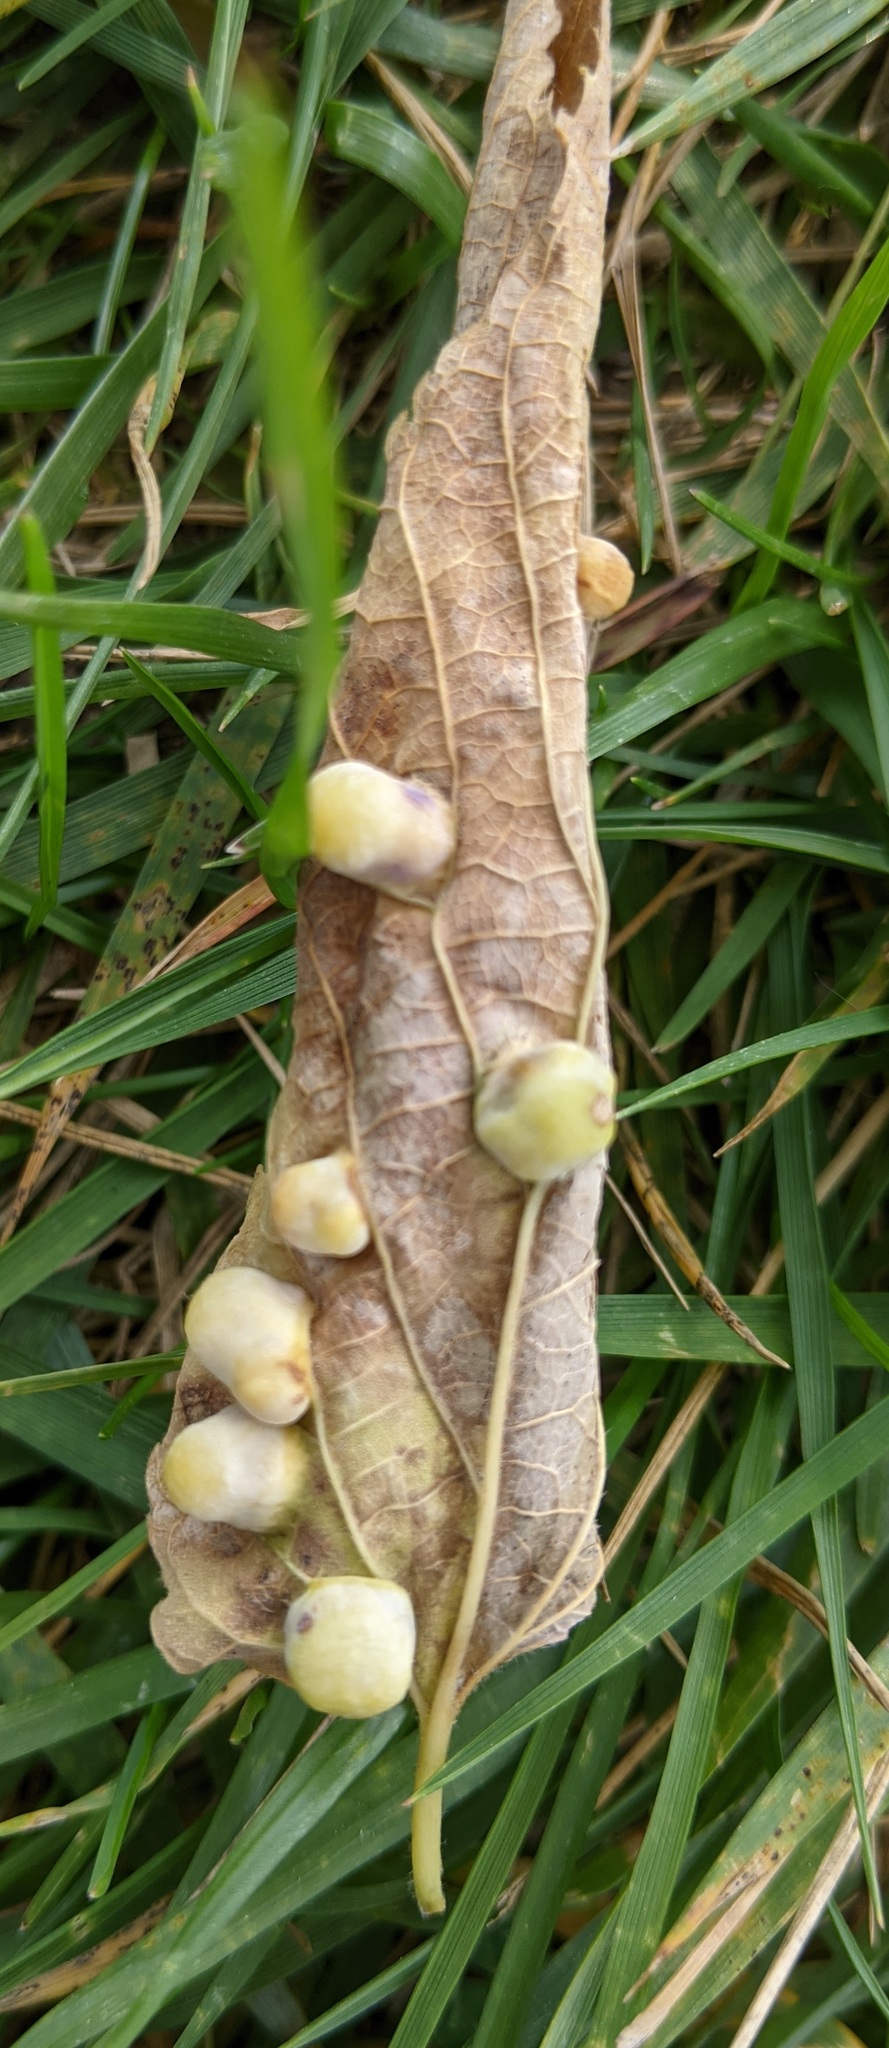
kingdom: Animalia
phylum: Arthropoda
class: Insecta
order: Hemiptera
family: Aphalaridae
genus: Pachypsylla
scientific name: Pachypsylla celtidismamma
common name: Hackberry nipplegall psyllid
